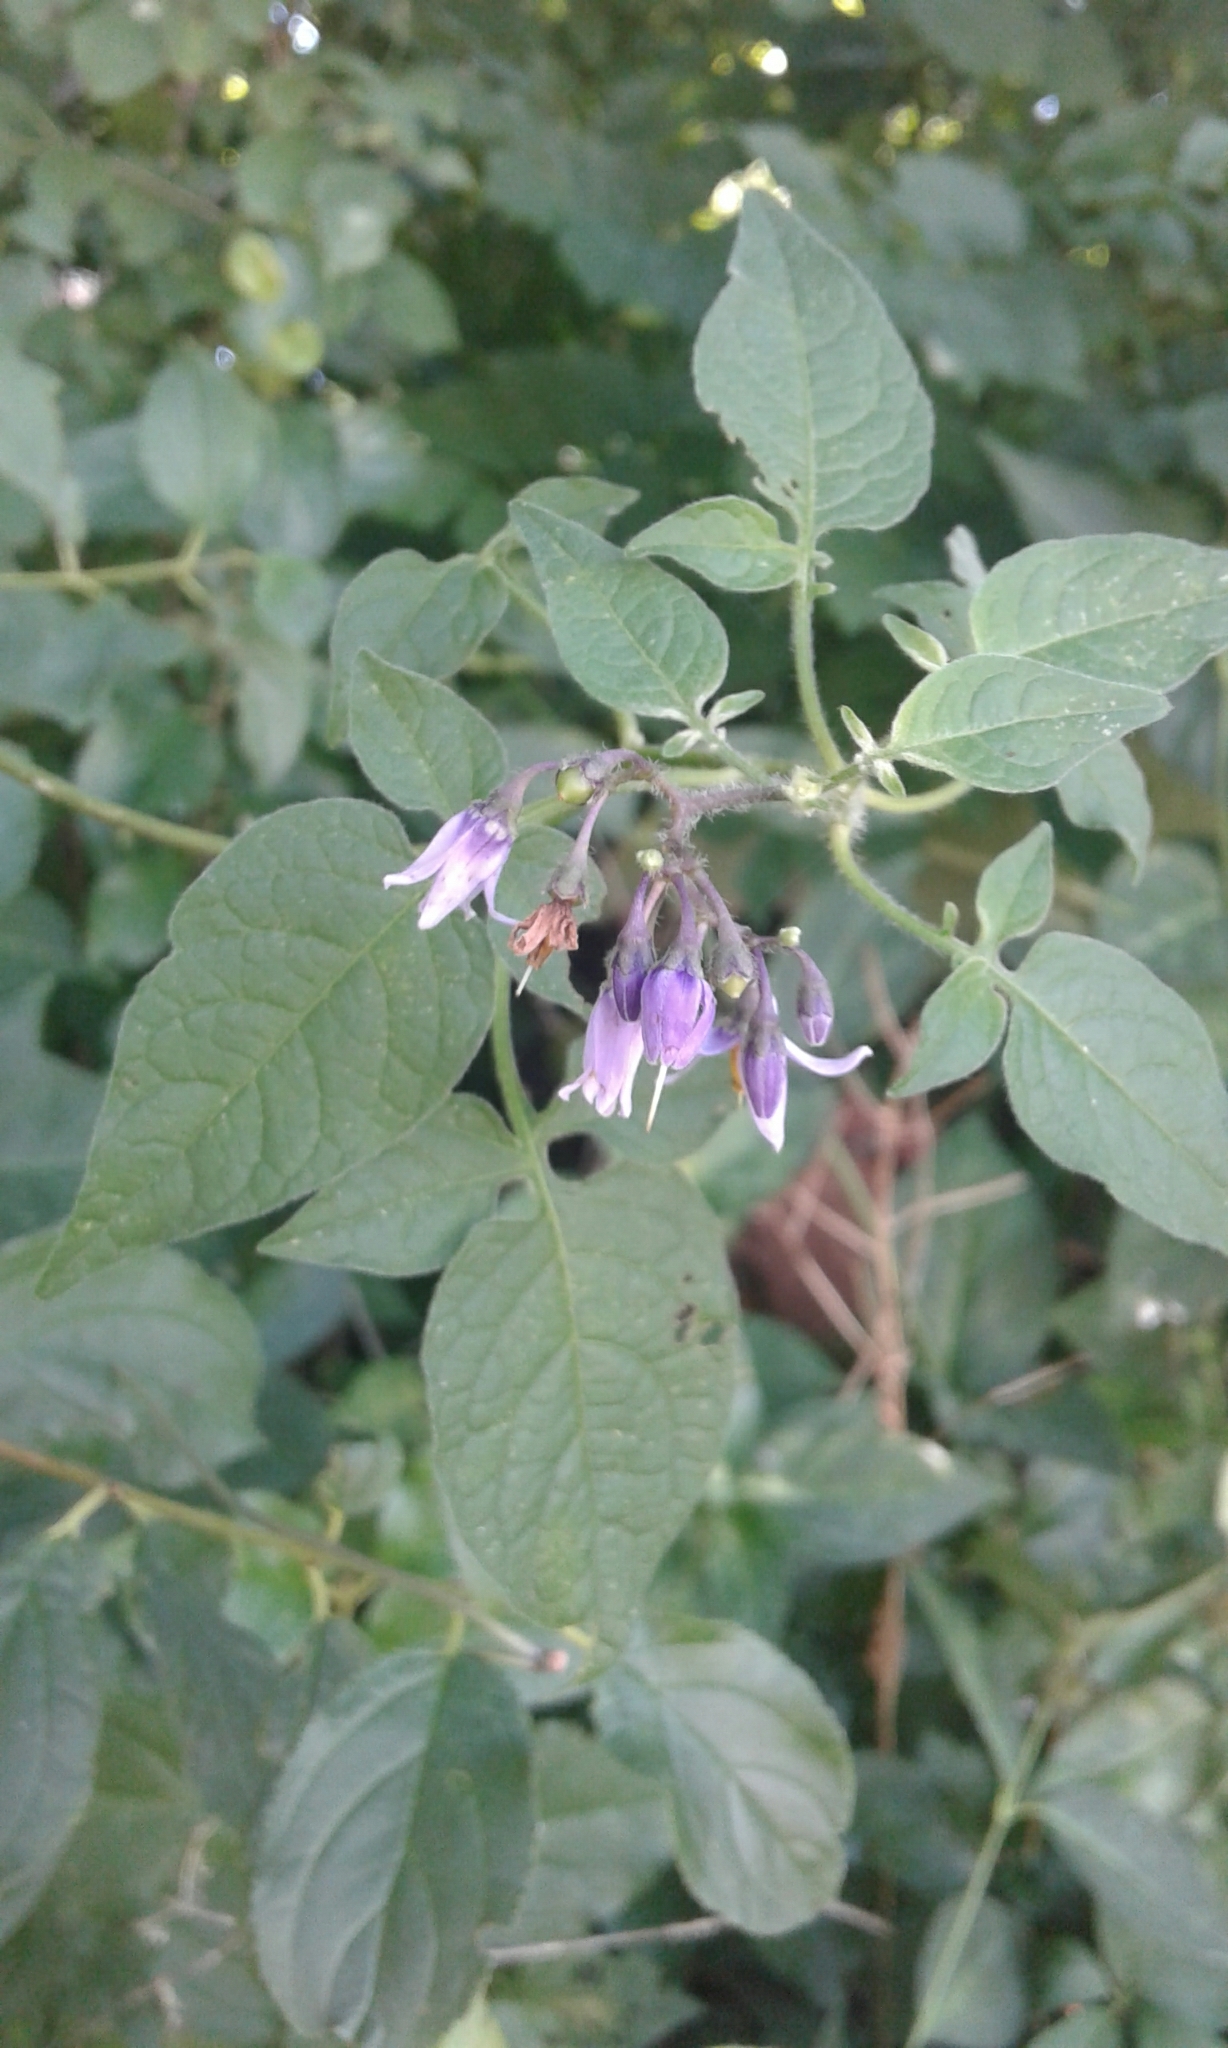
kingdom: Plantae
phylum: Tracheophyta
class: Magnoliopsida
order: Solanales
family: Solanaceae
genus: Solanum
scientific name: Solanum dulcamara
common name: Climbing nightshade
